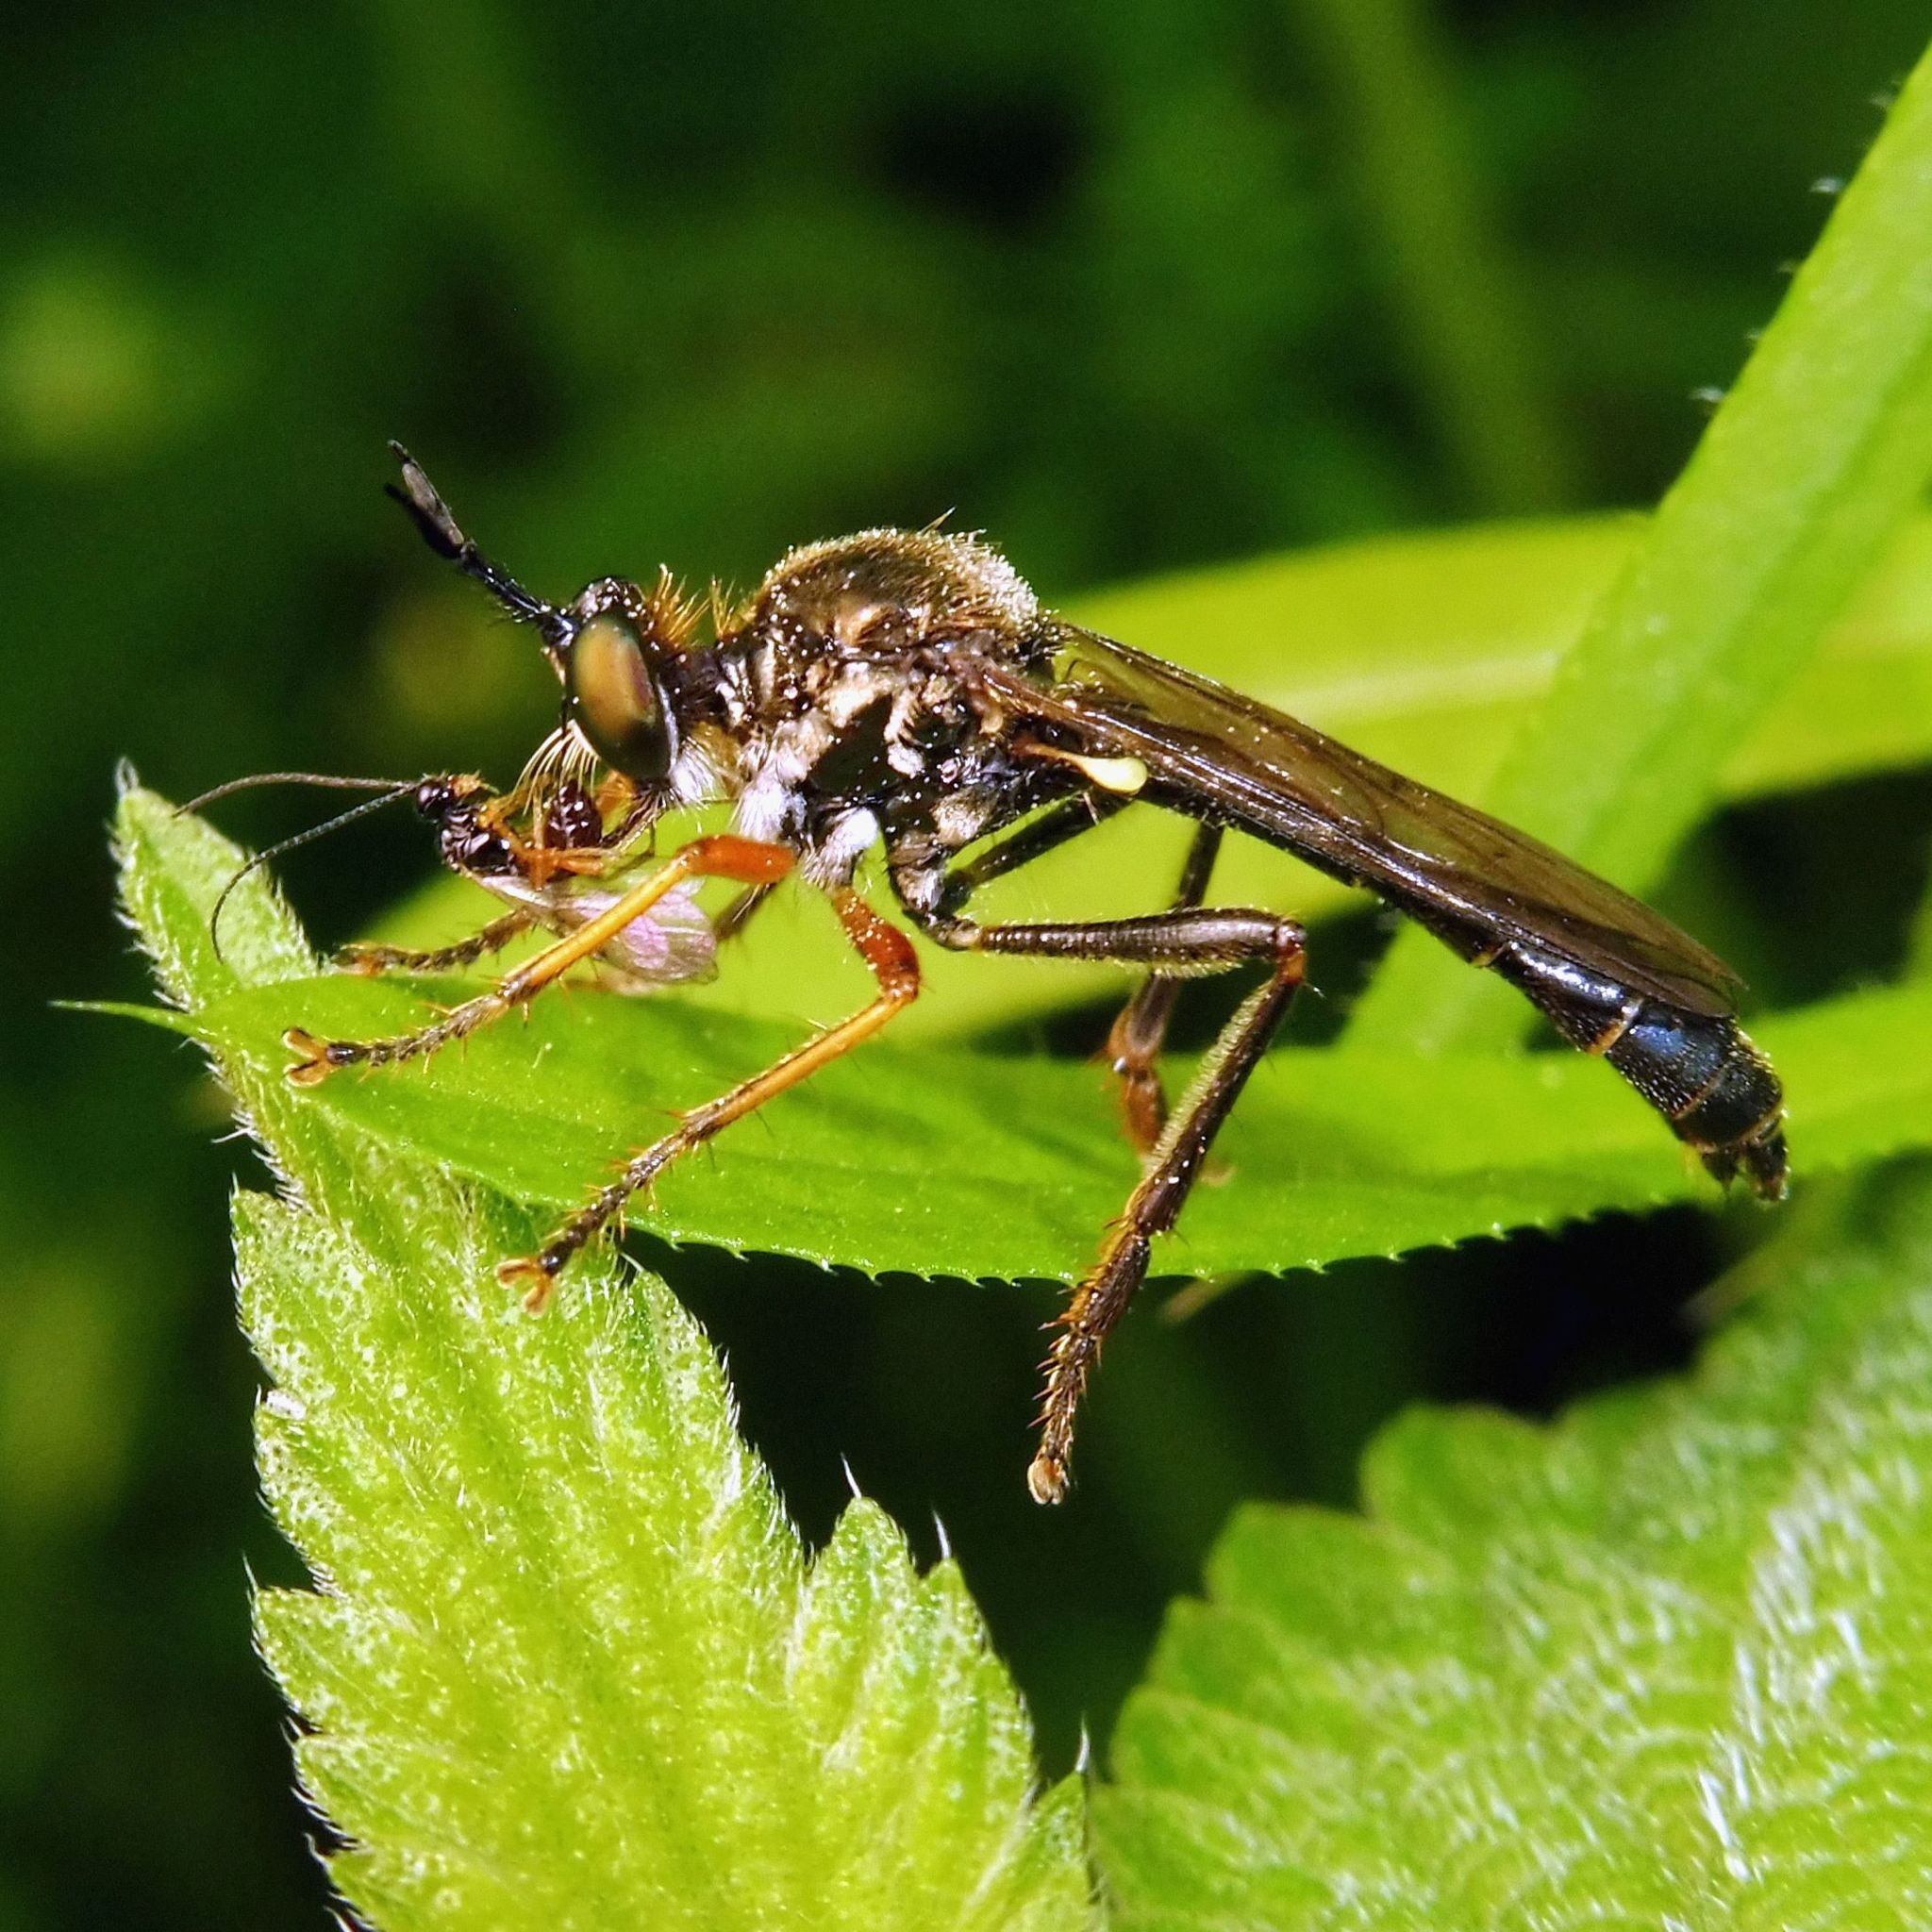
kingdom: Animalia
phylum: Arthropoda
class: Insecta
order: Diptera
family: Asilidae
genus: Dioctria
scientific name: Dioctria rufipes
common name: Common red-legged robberfly
